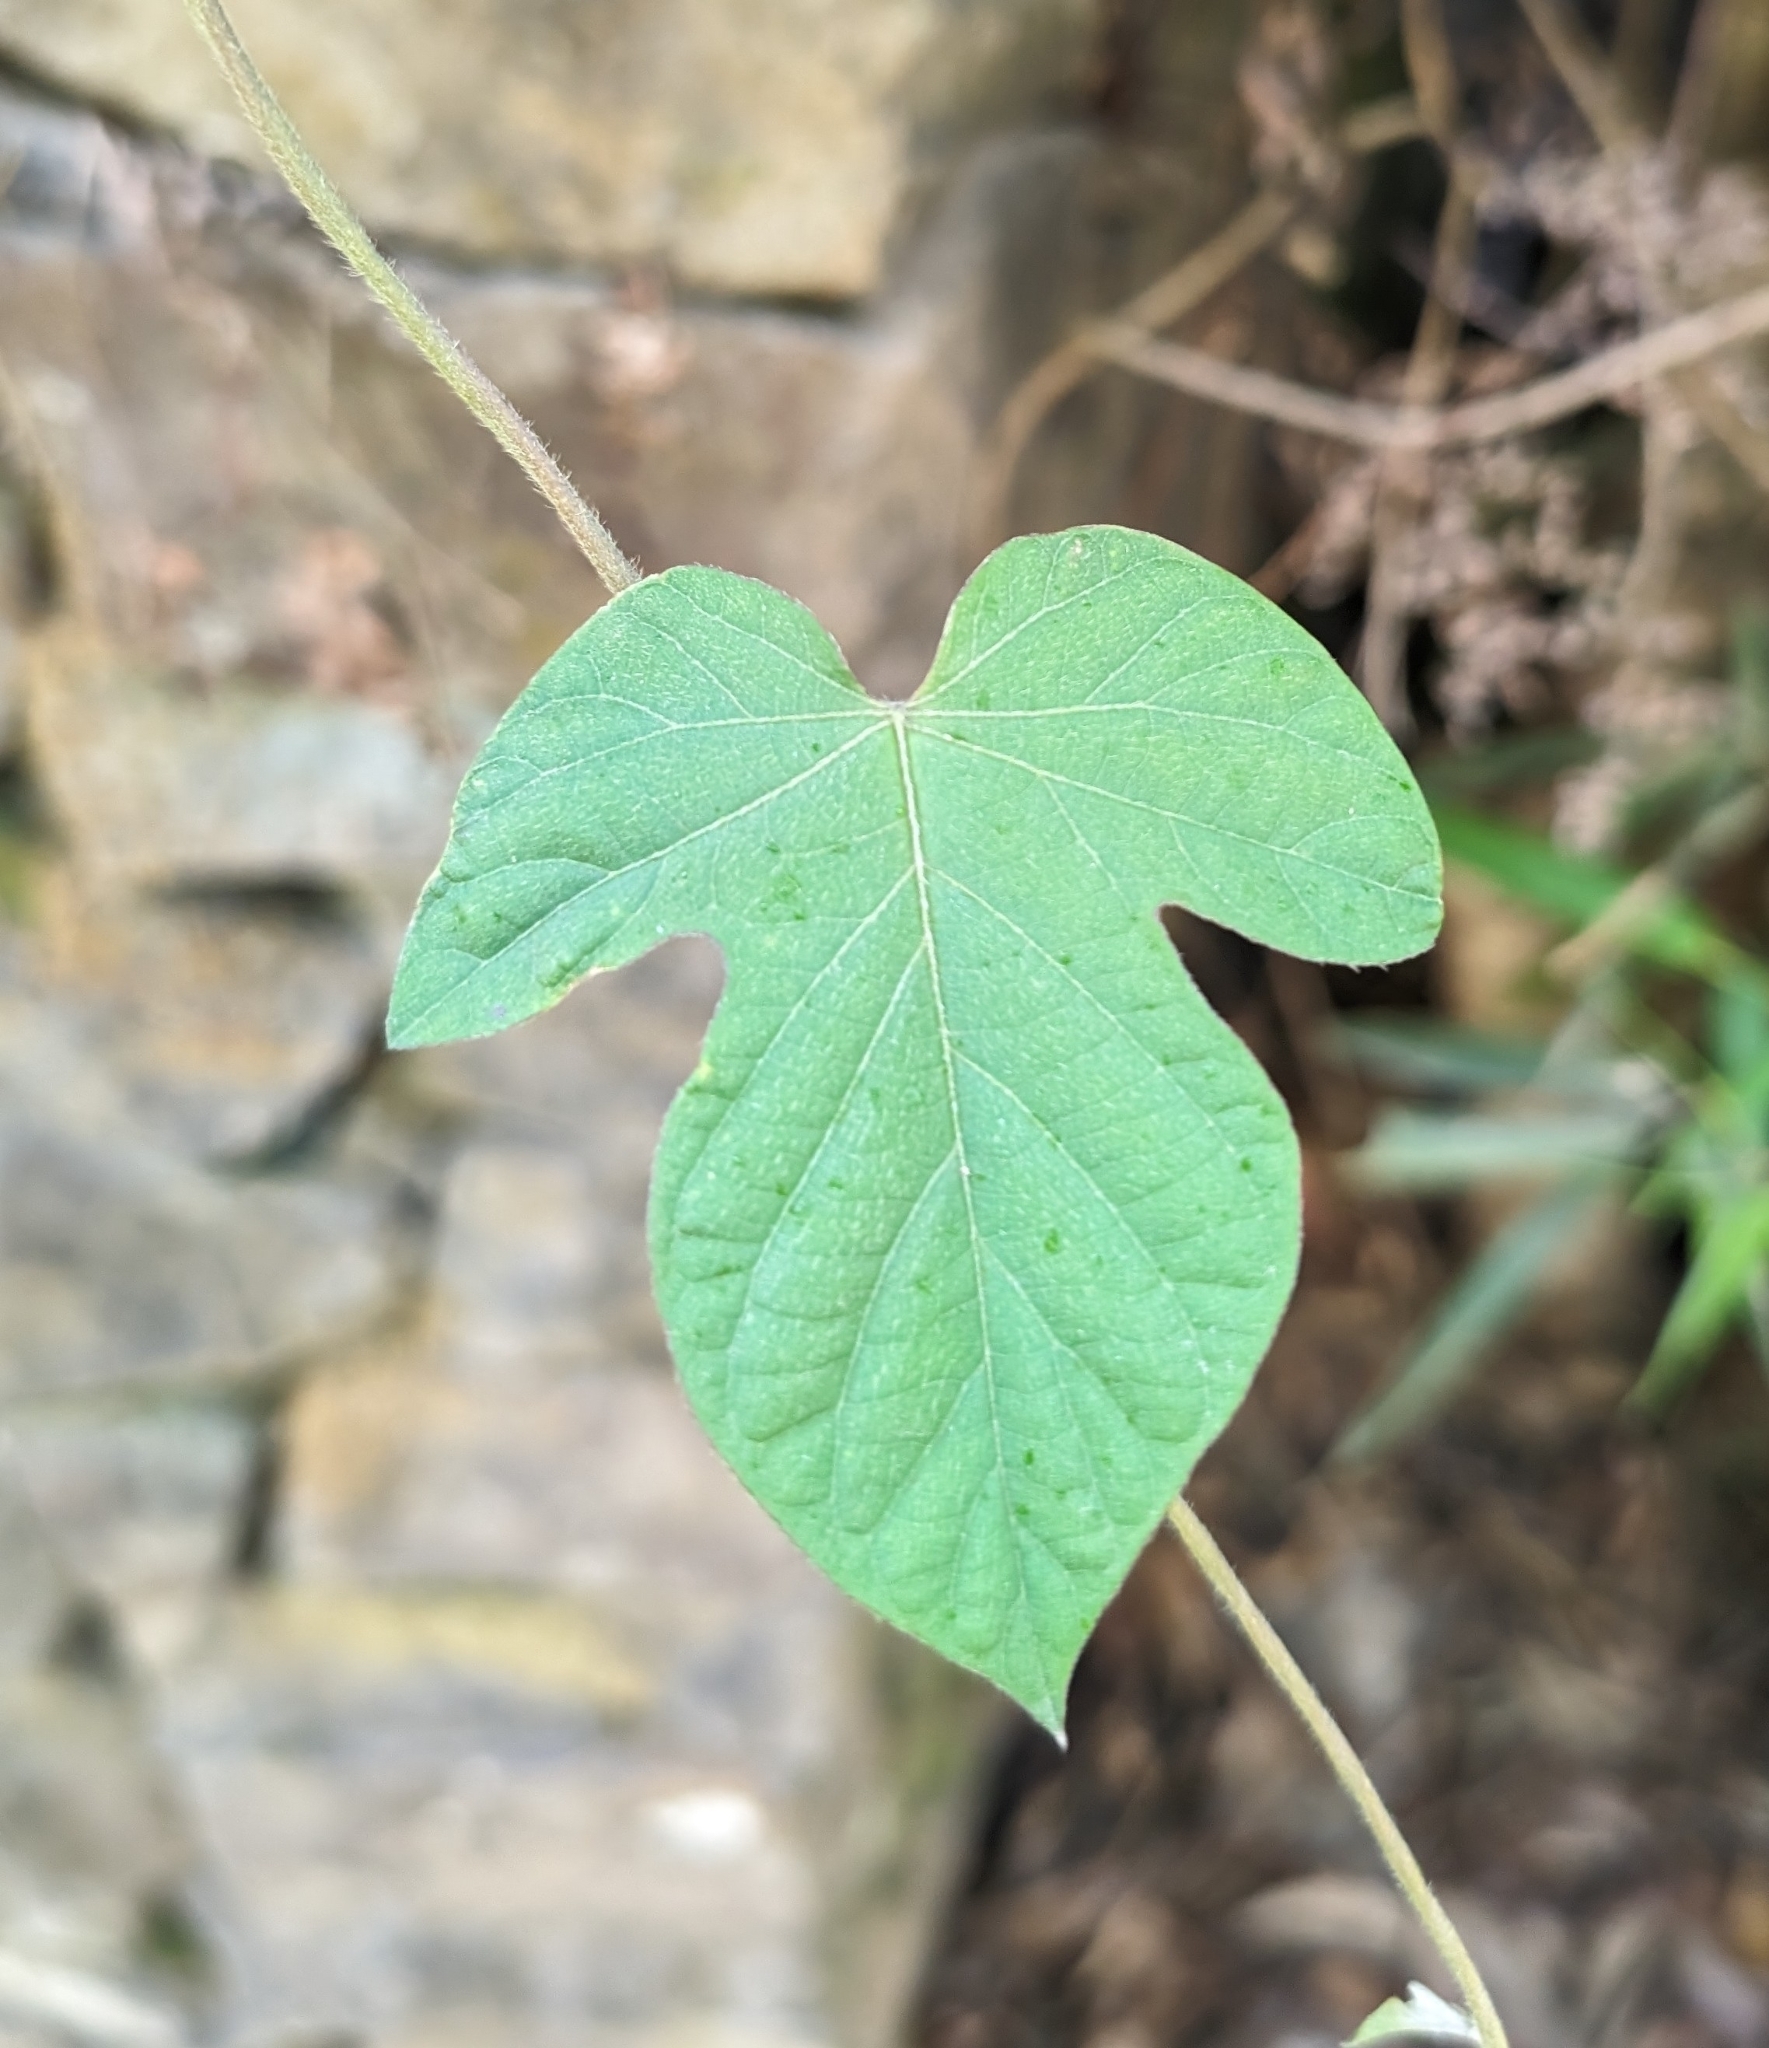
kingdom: Plantae
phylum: Tracheophyta
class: Magnoliopsida
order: Solanales
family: Convolvulaceae
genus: Ipomoea
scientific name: Ipomoea indica
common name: Blue dawnflower
